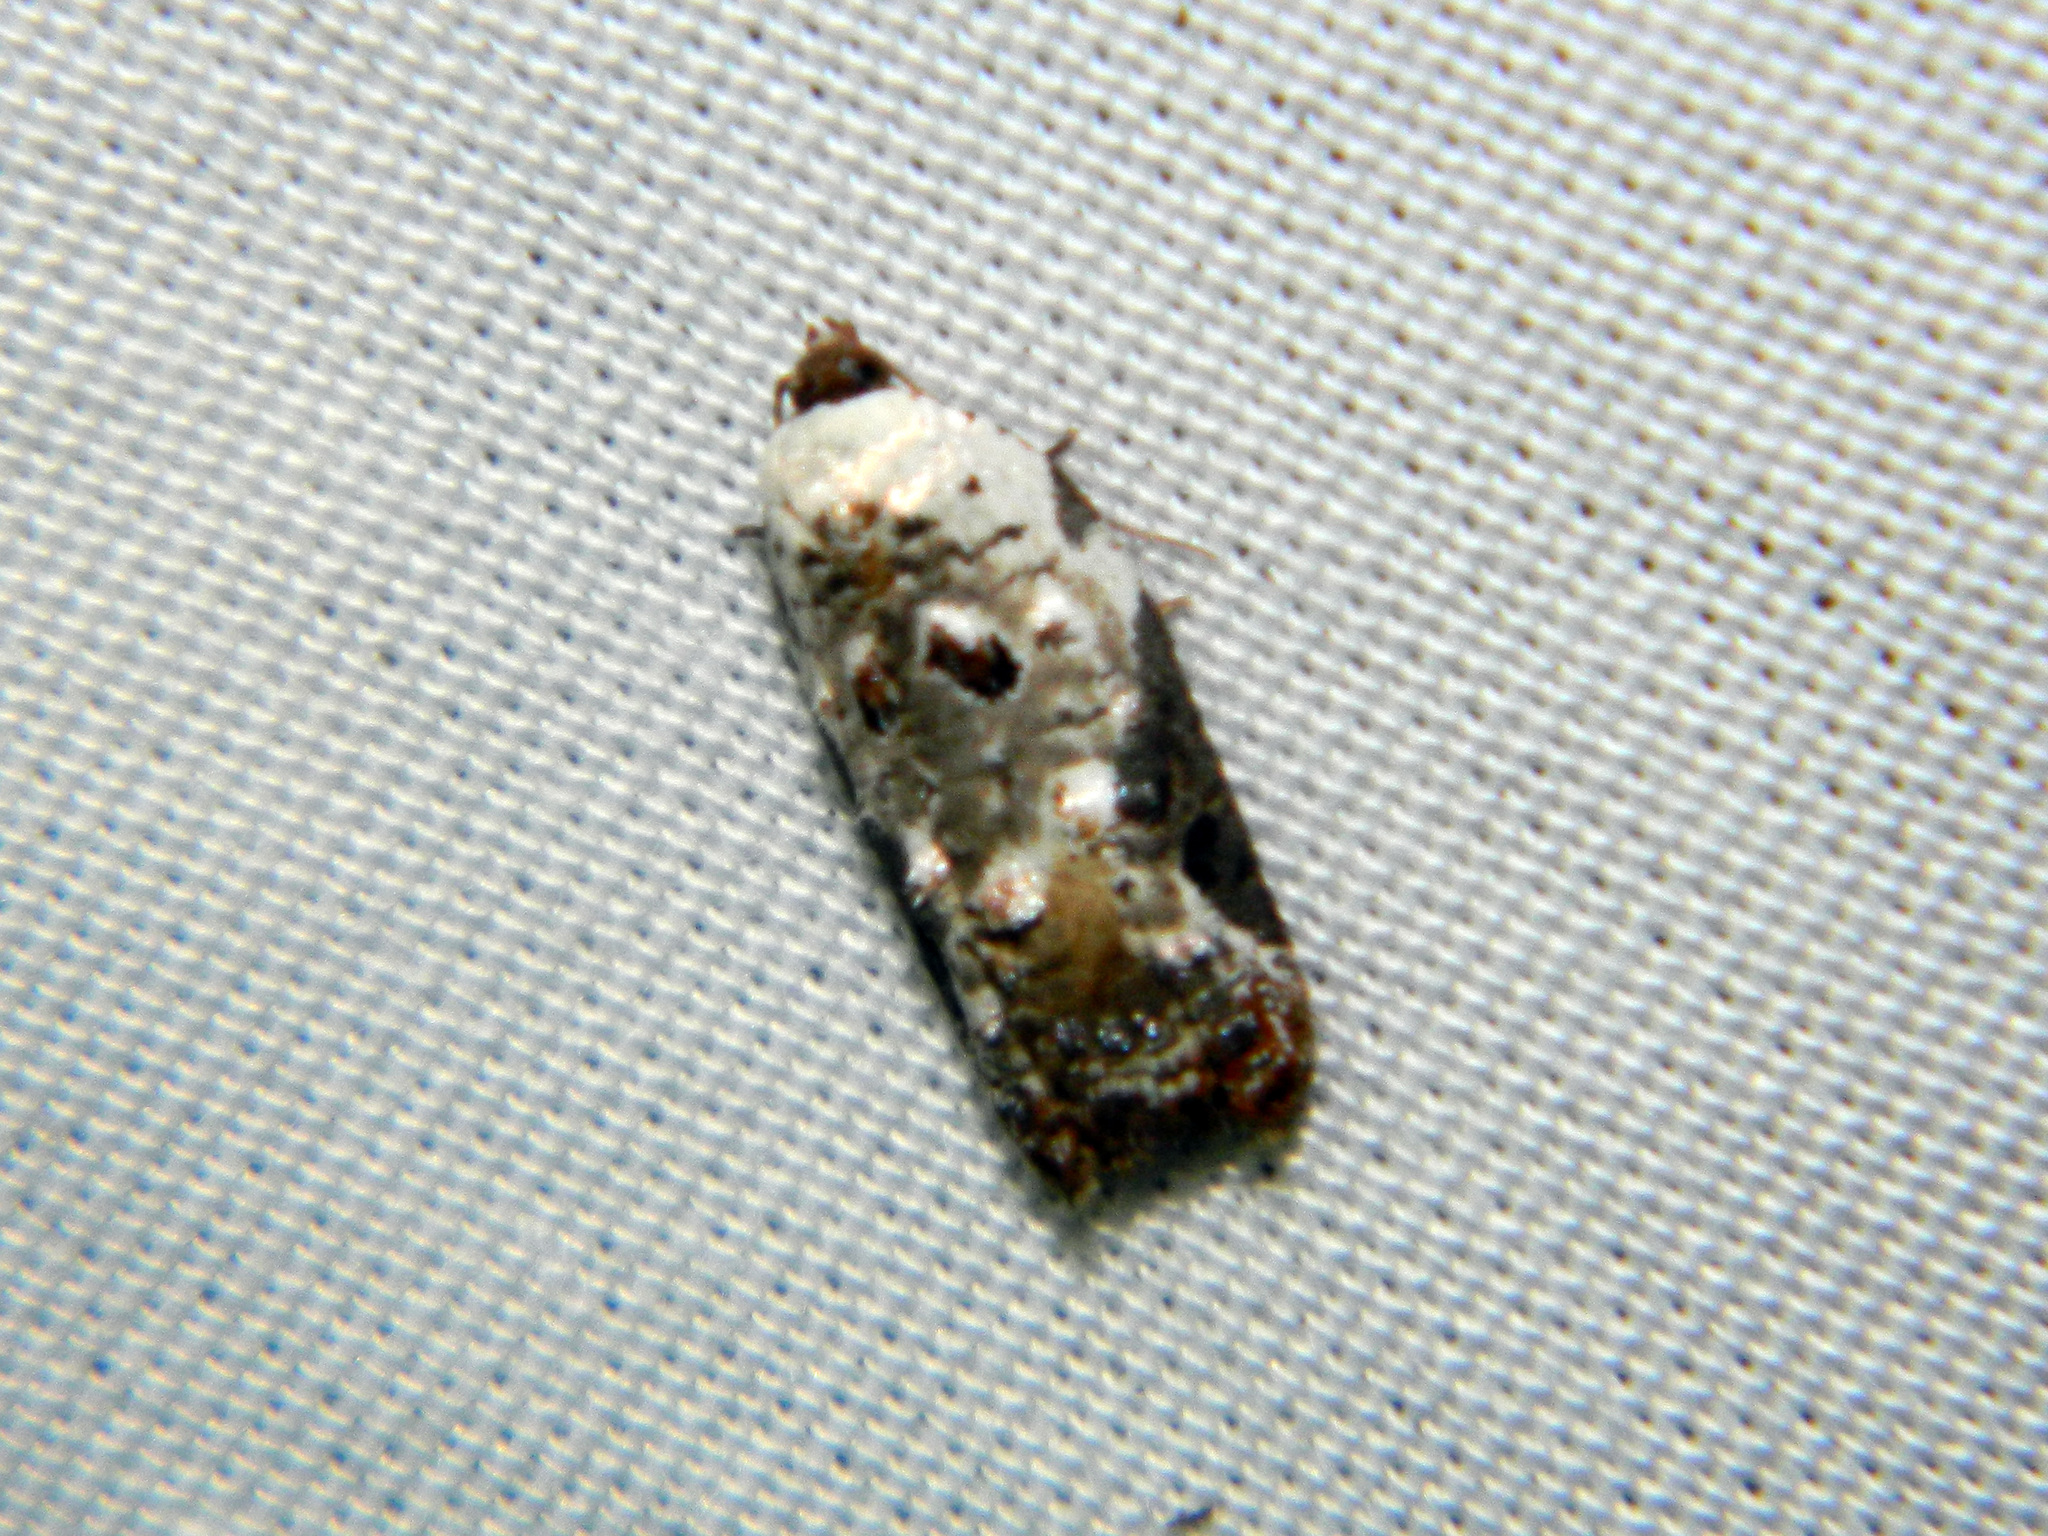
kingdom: Animalia
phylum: Arthropoda
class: Insecta
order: Lepidoptera
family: Tortricidae
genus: Acleris
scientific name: Acleris nivisellana
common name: Snowy-shouldered acleris moth
